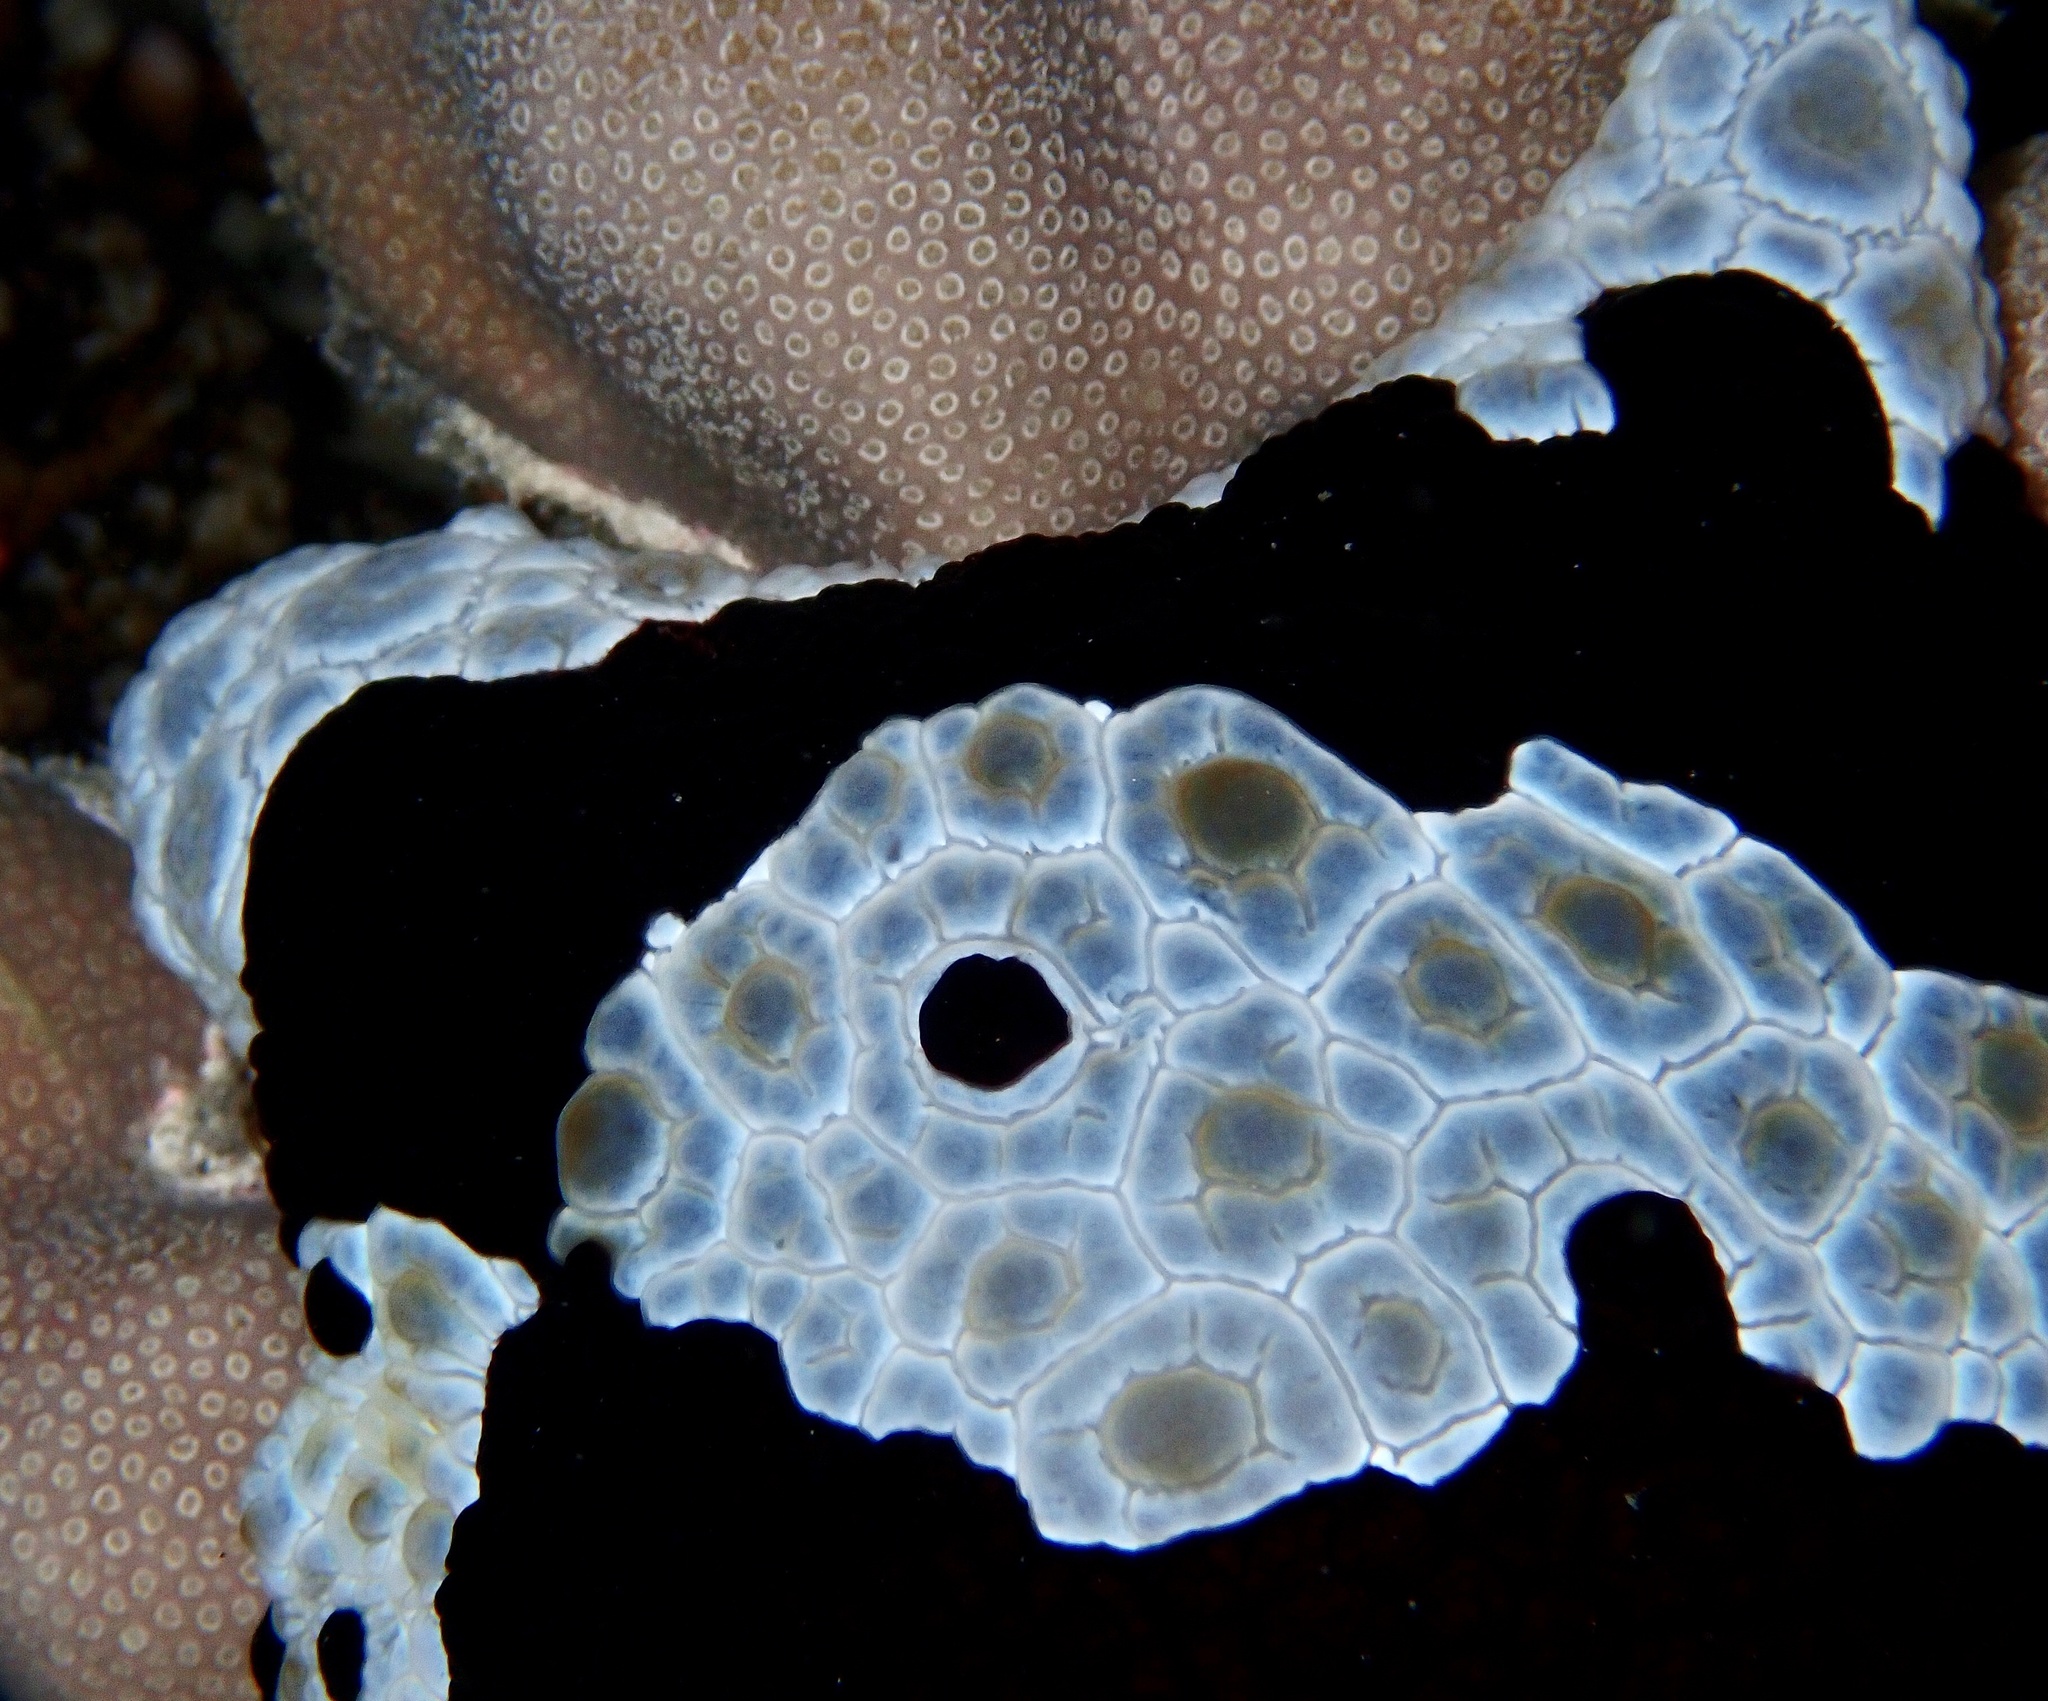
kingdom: Animalia
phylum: Mollusca
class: Gastropoda
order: Pleurobranchida
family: Pleurobranchidae
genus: Pleurobranchus
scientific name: Pleurobranchus grandis
